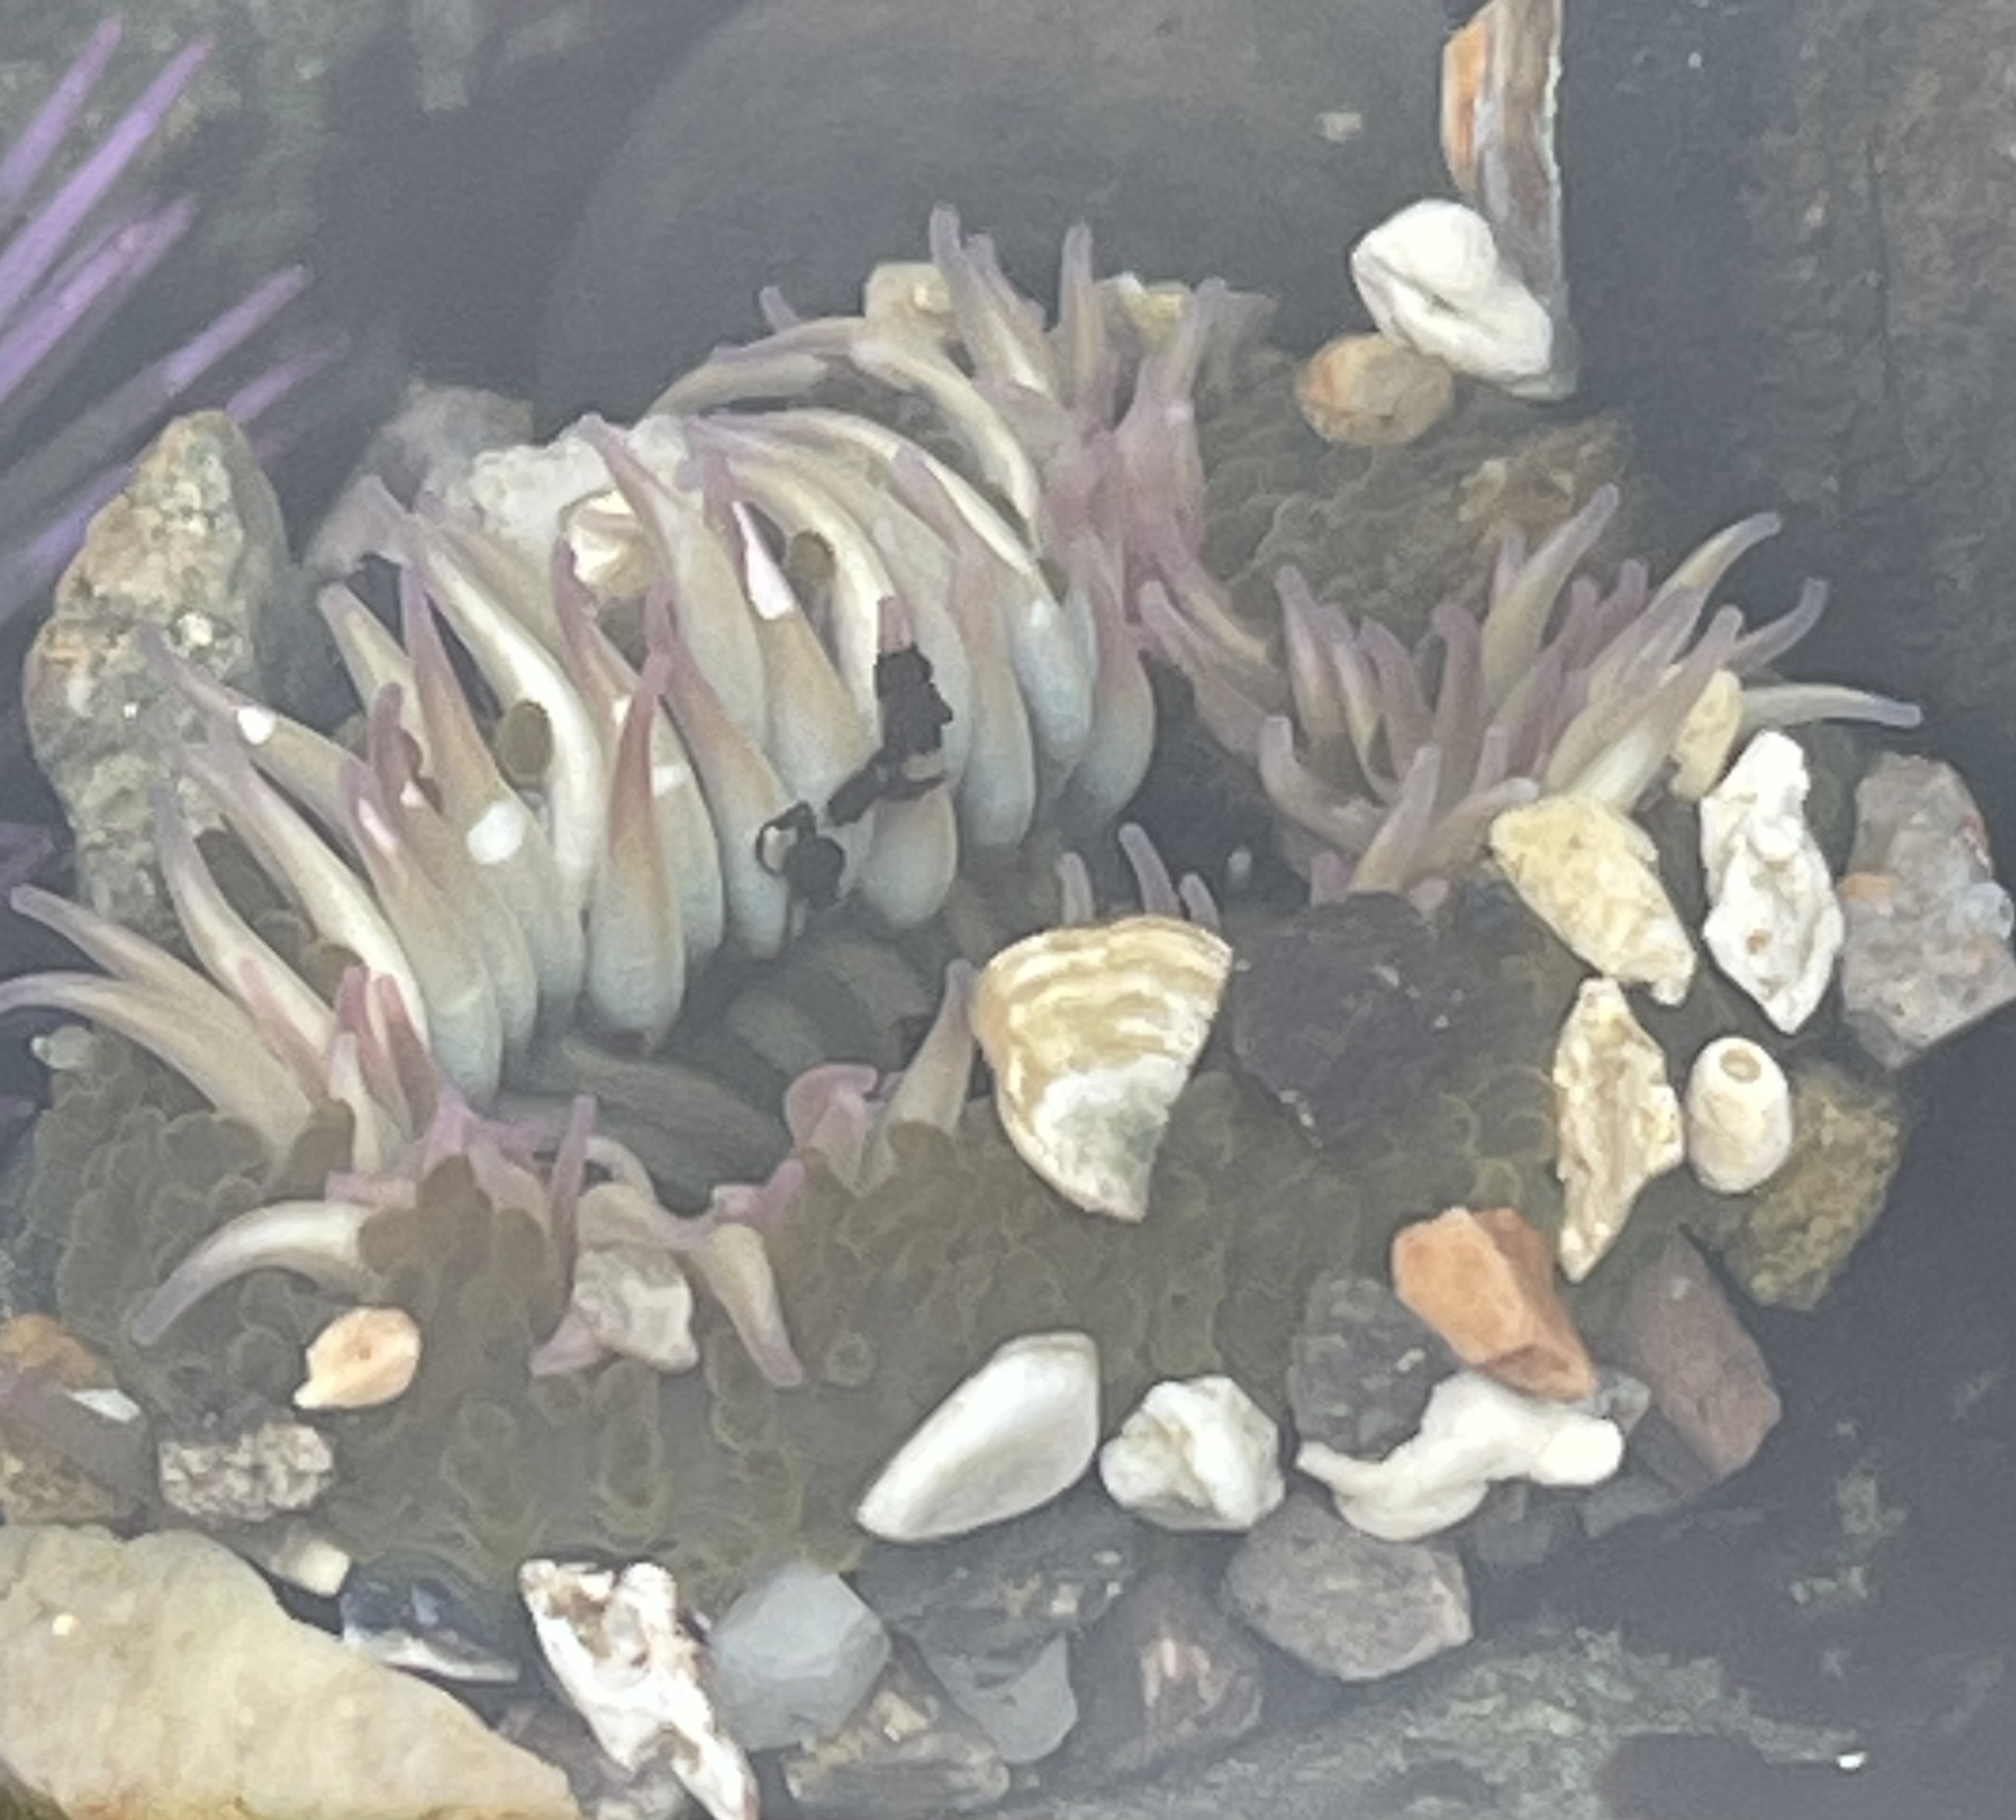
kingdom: Animalia
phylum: Cnidaria
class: Anthozoa
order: Actiniaria
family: Actiniidae
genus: Anthopleura
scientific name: Anthopleura elegantissima
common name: Clonal anemone
